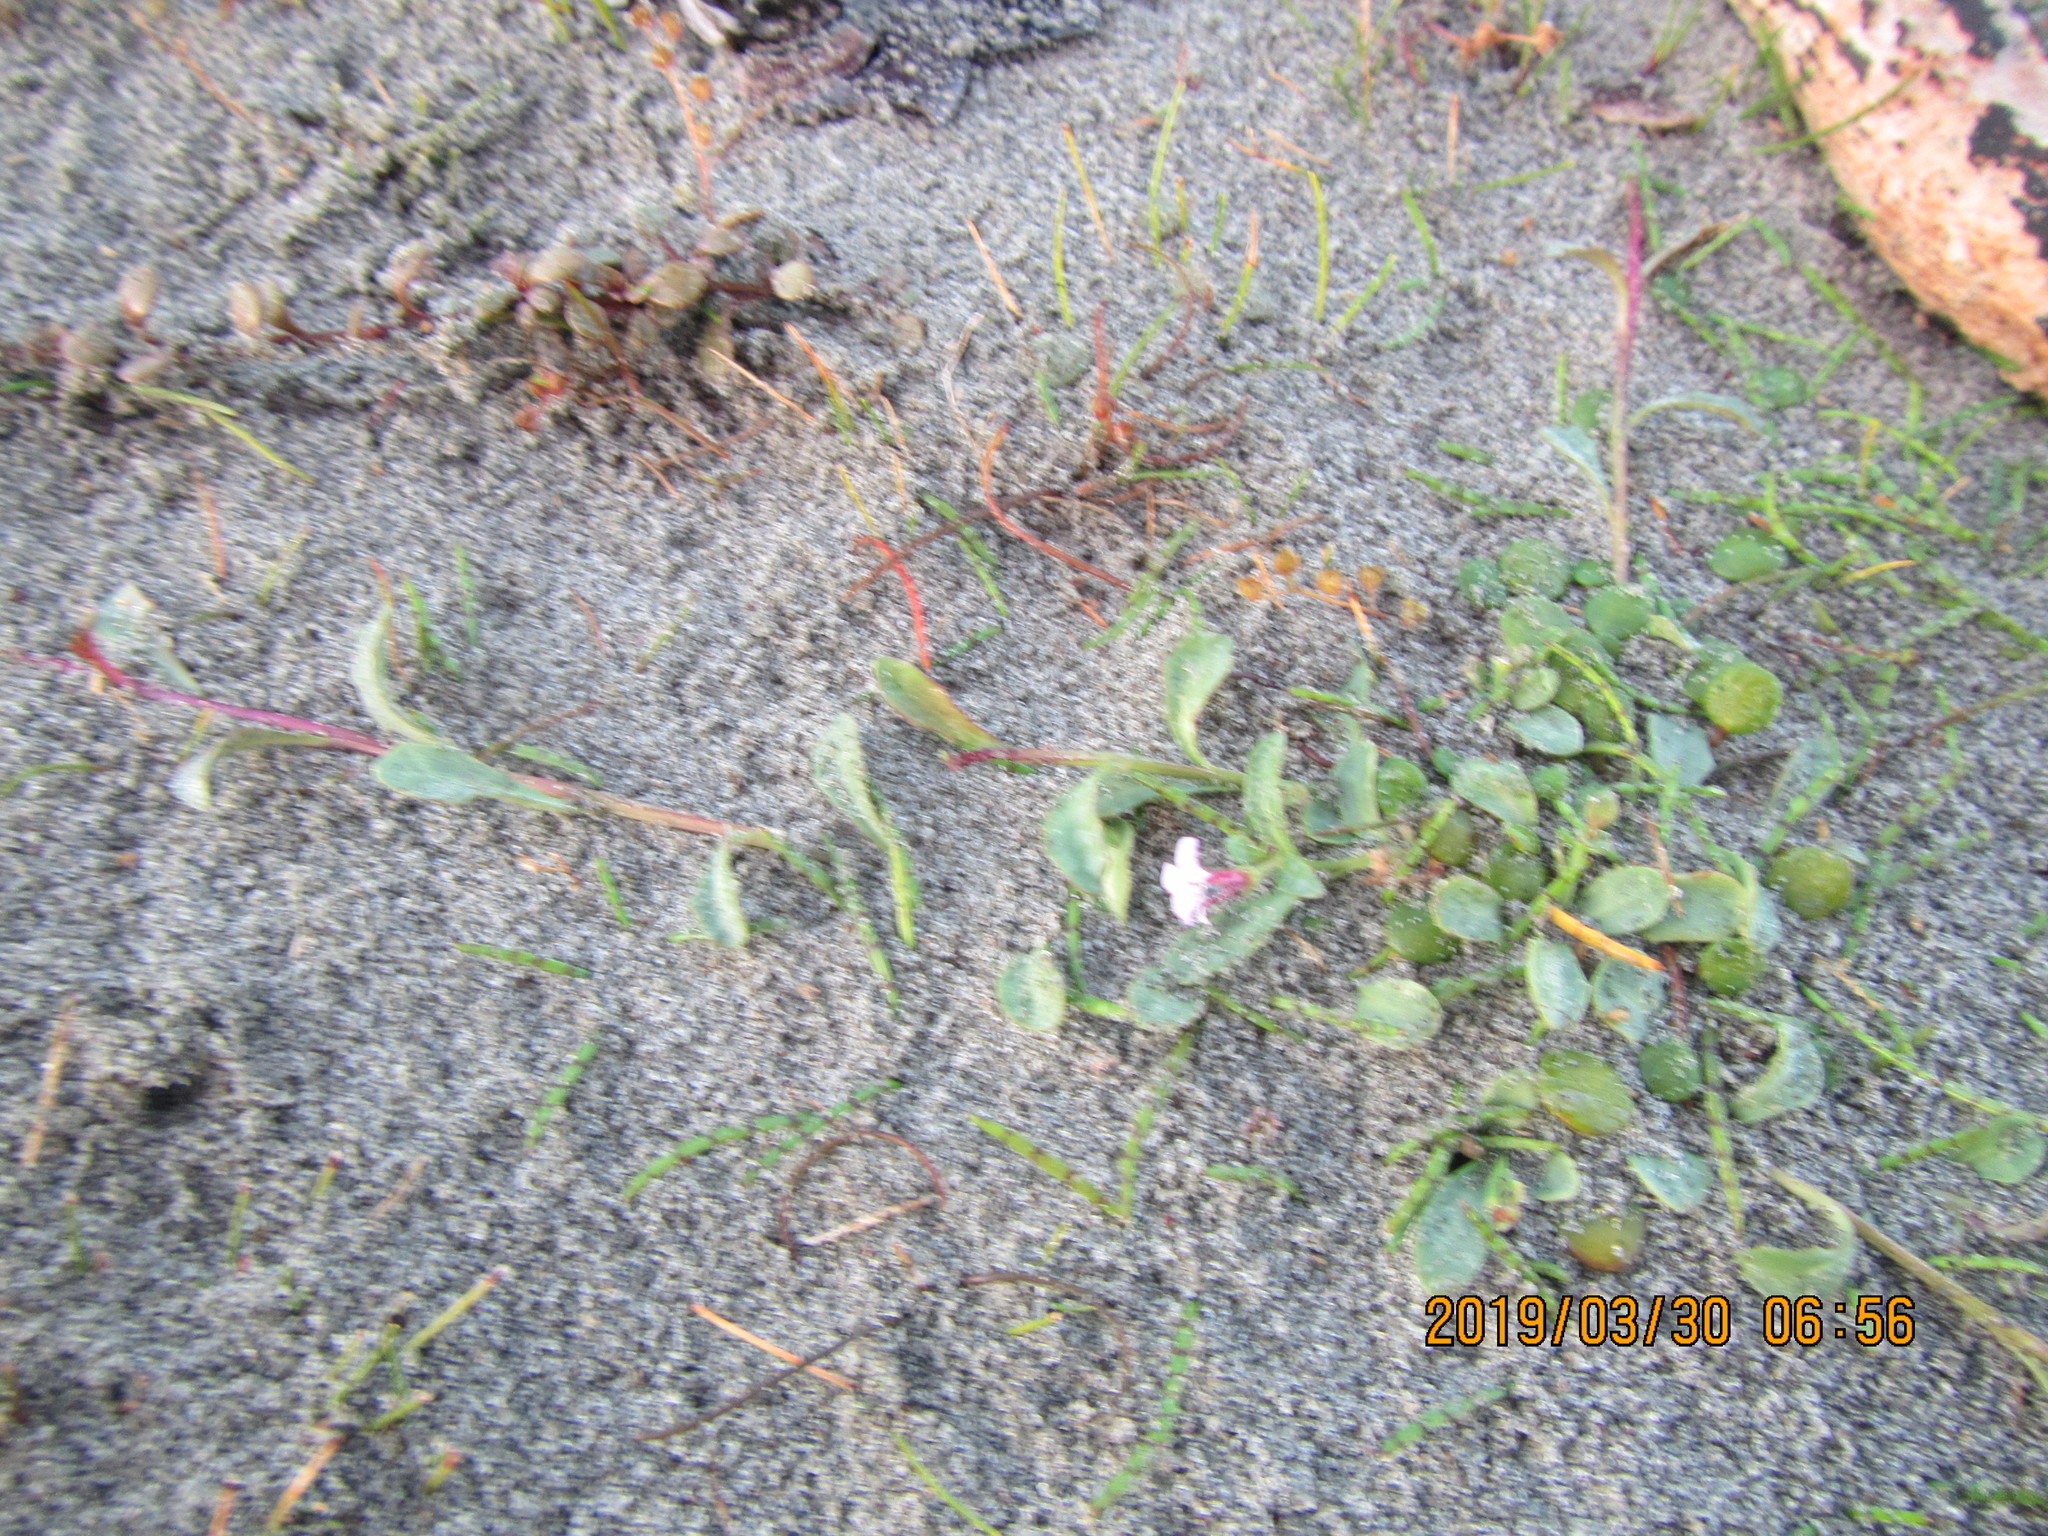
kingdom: Plantae
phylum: Tracheophyta
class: Magnoliopsida
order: Asterales
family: Campanulaceae
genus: Lobelia
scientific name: Lobelia anceps
